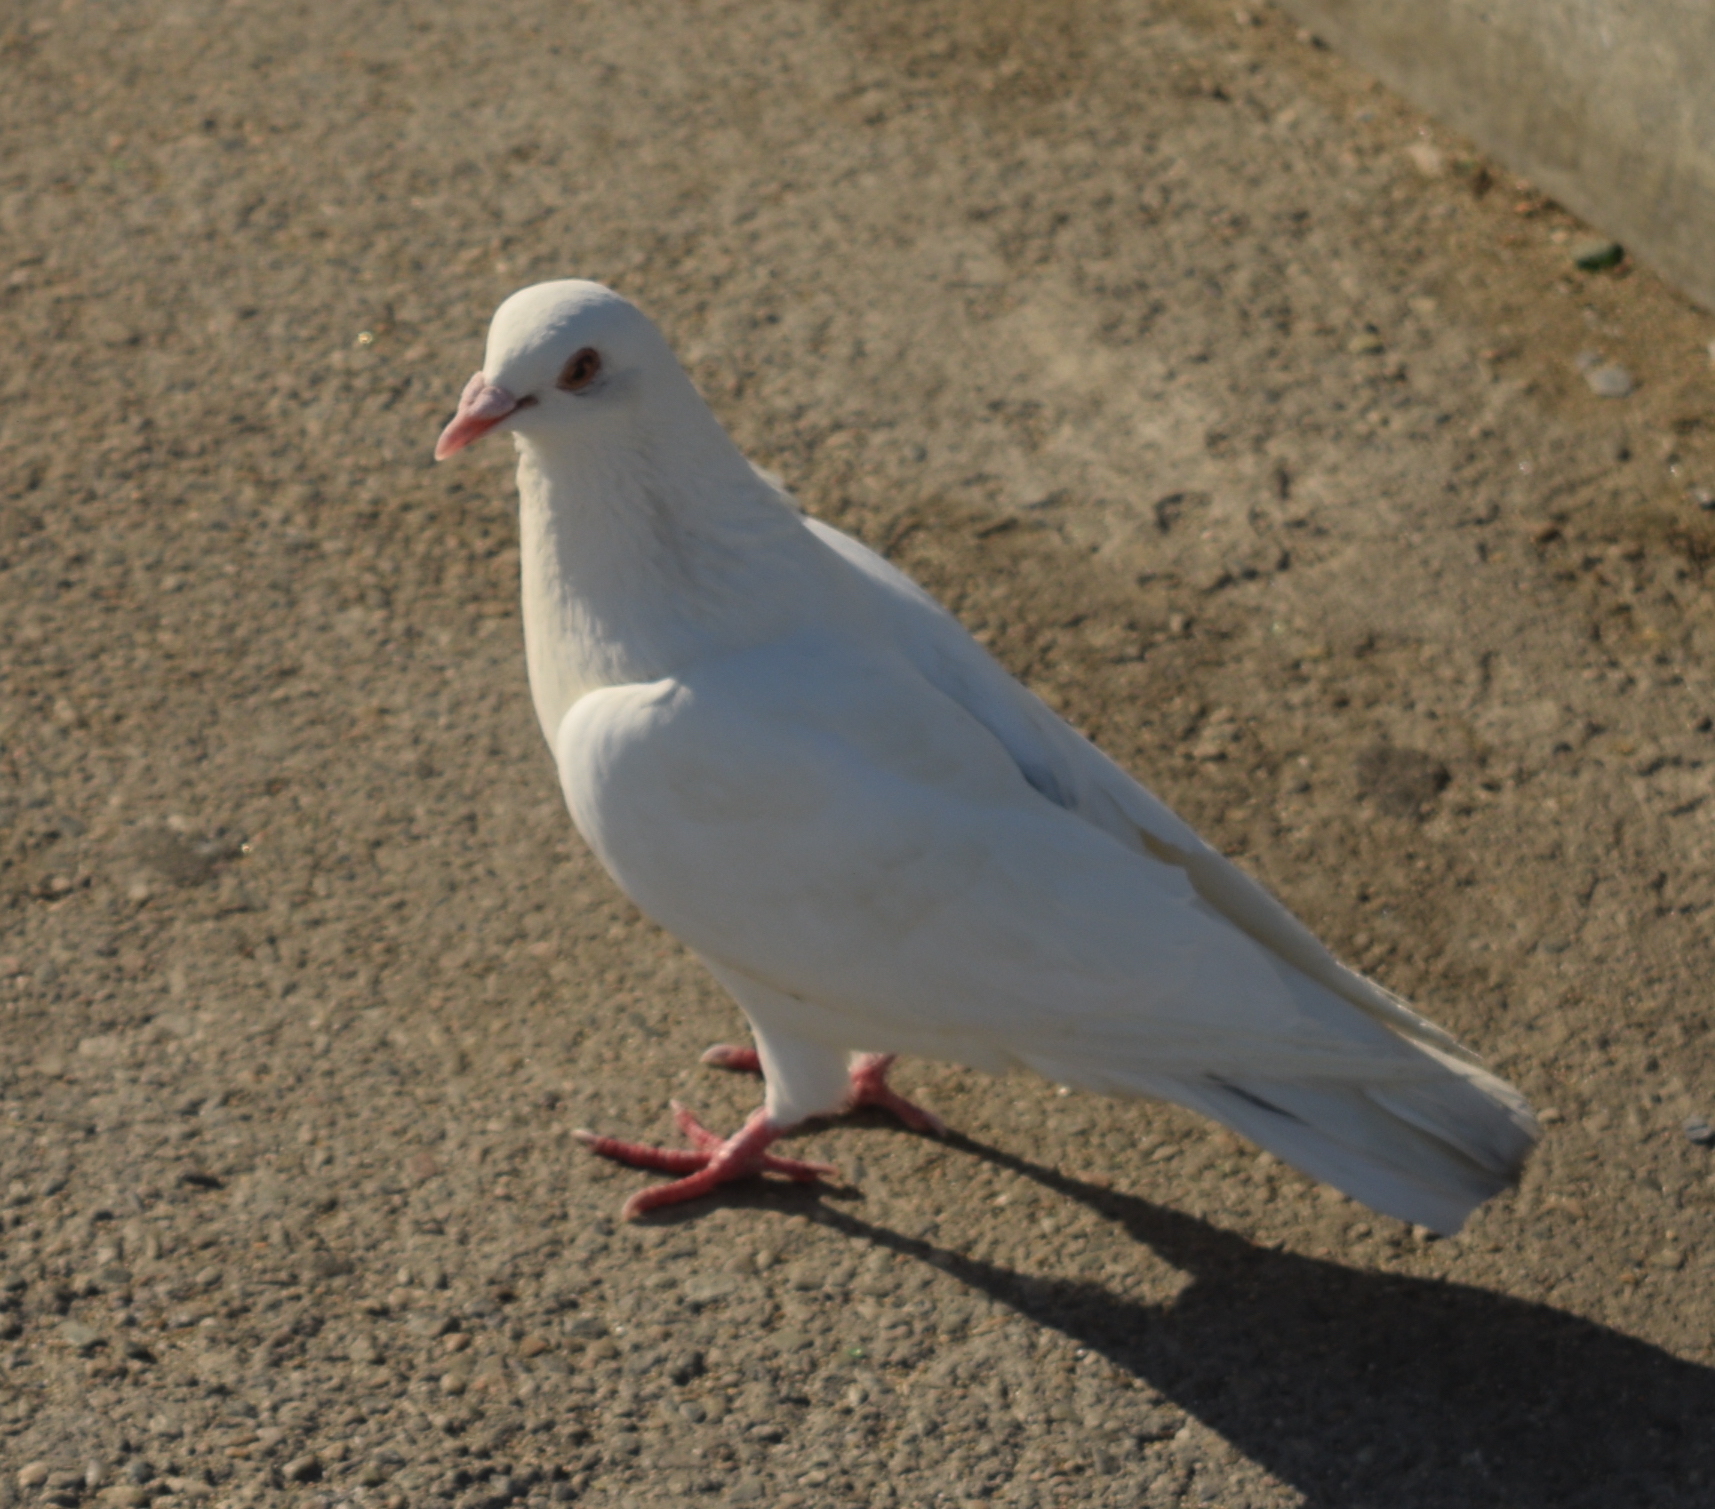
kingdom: Animalia
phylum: Chordata
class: Aves
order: Columbiformes
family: Columbidae
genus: Columba
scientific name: Columba livia
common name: Rock pigeon
